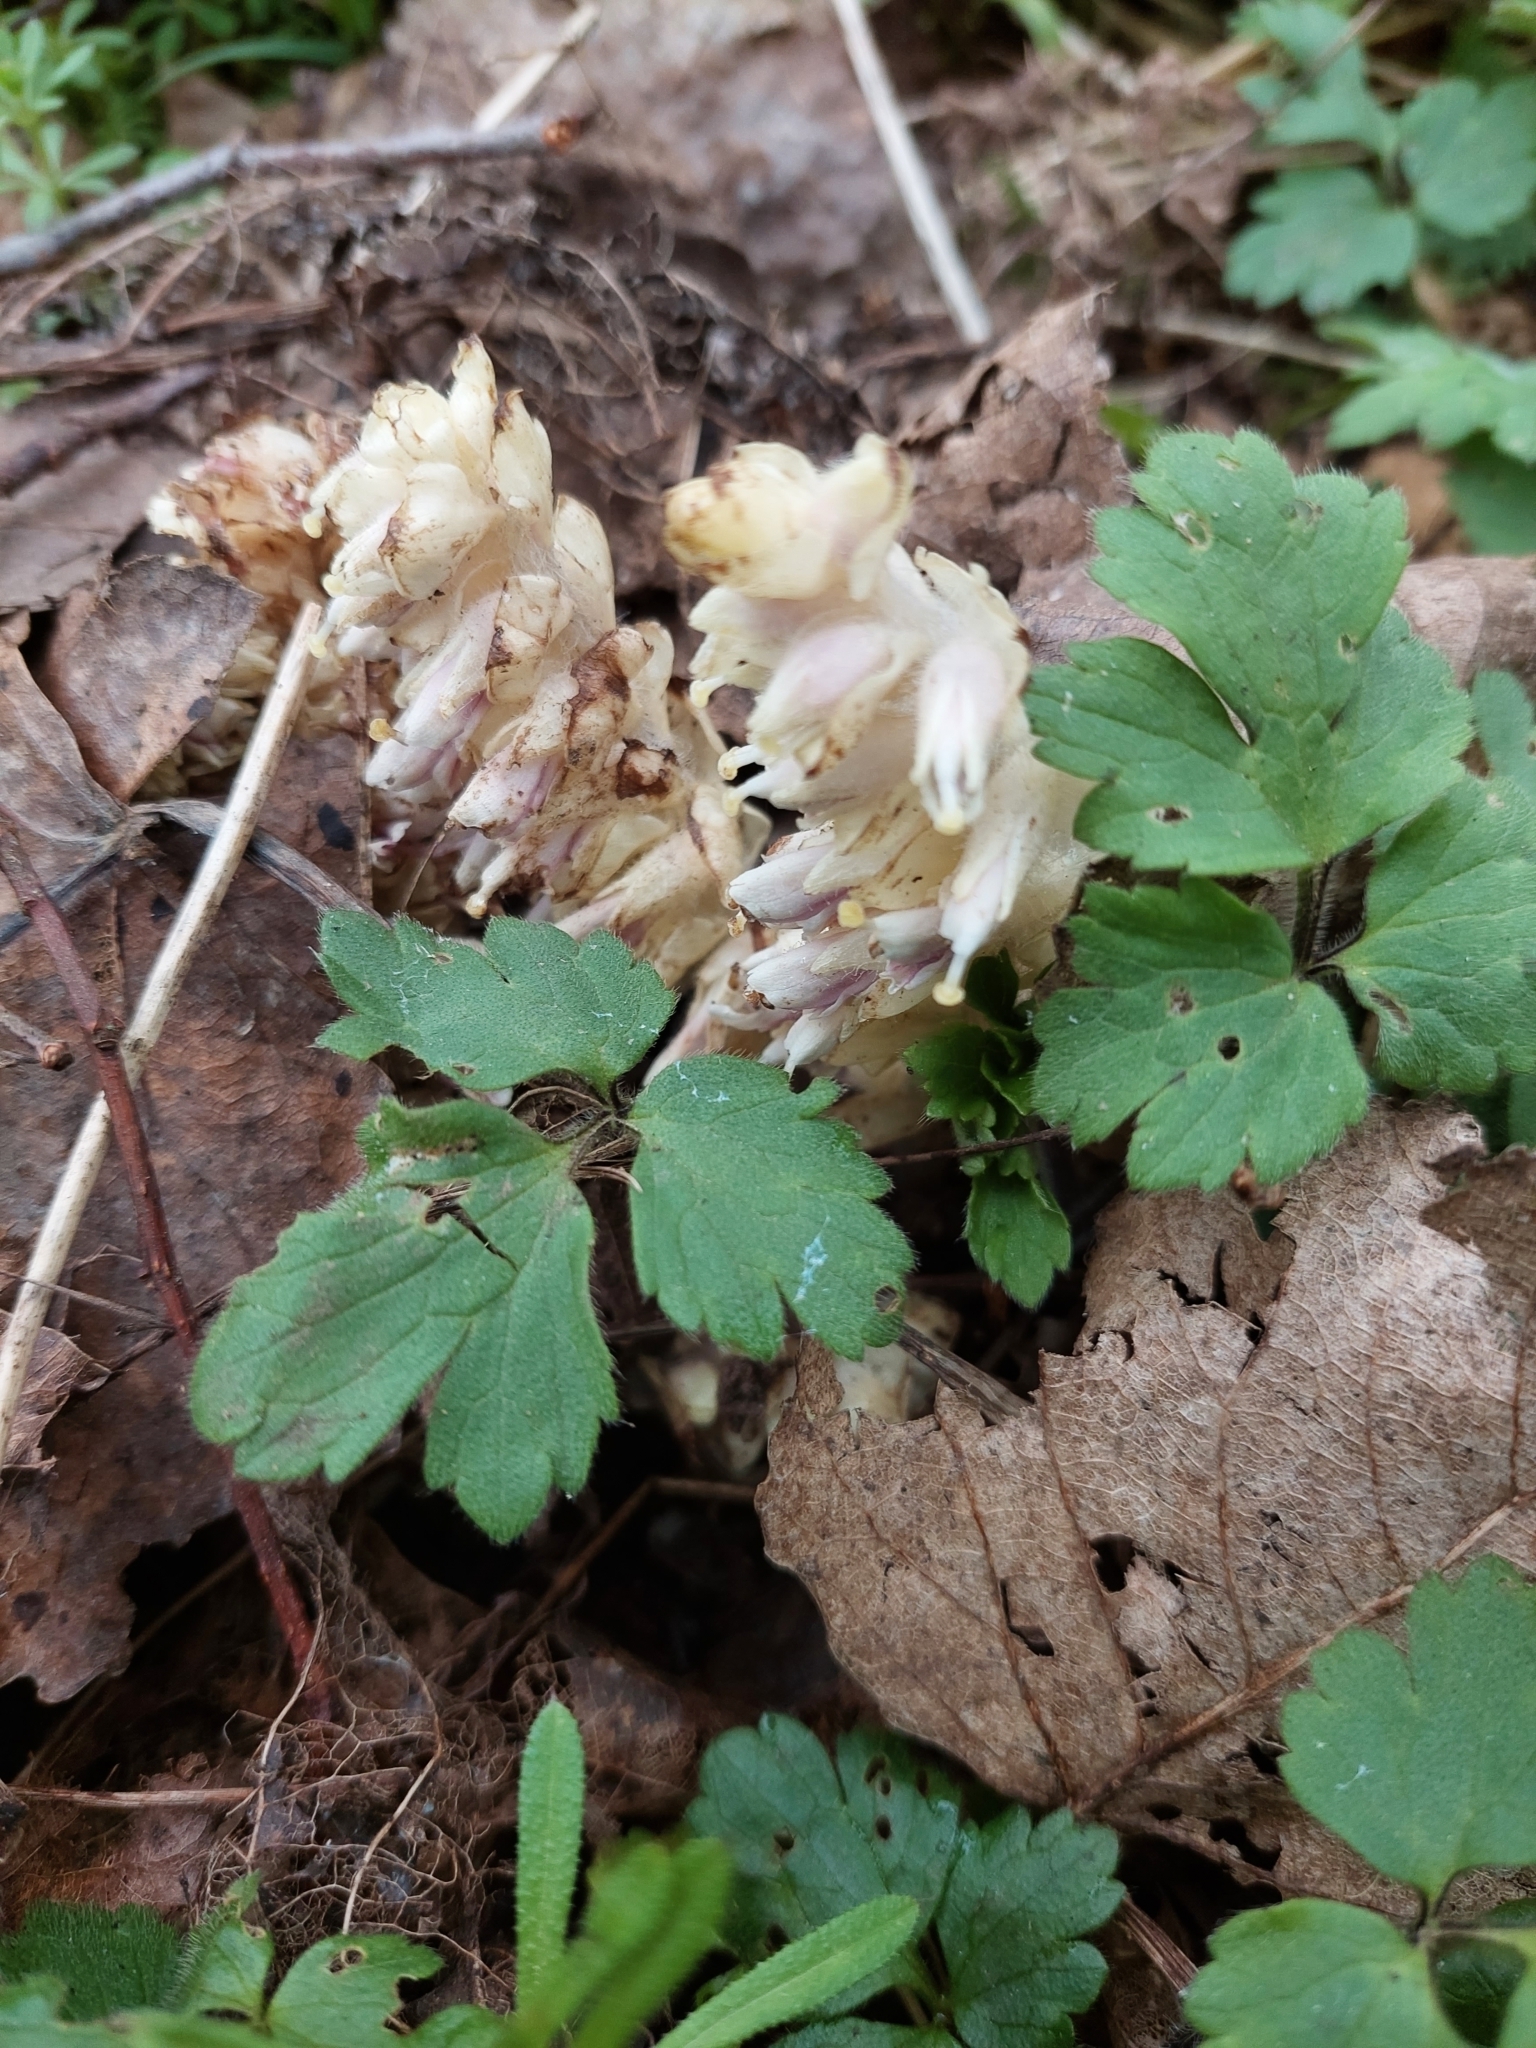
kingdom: Plantae
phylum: Tracheophyta
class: Magnoliopsida
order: Lamiales
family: Orobanchaceae
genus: Lathraea
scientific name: Lathraea squamaria
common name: Toothwort
